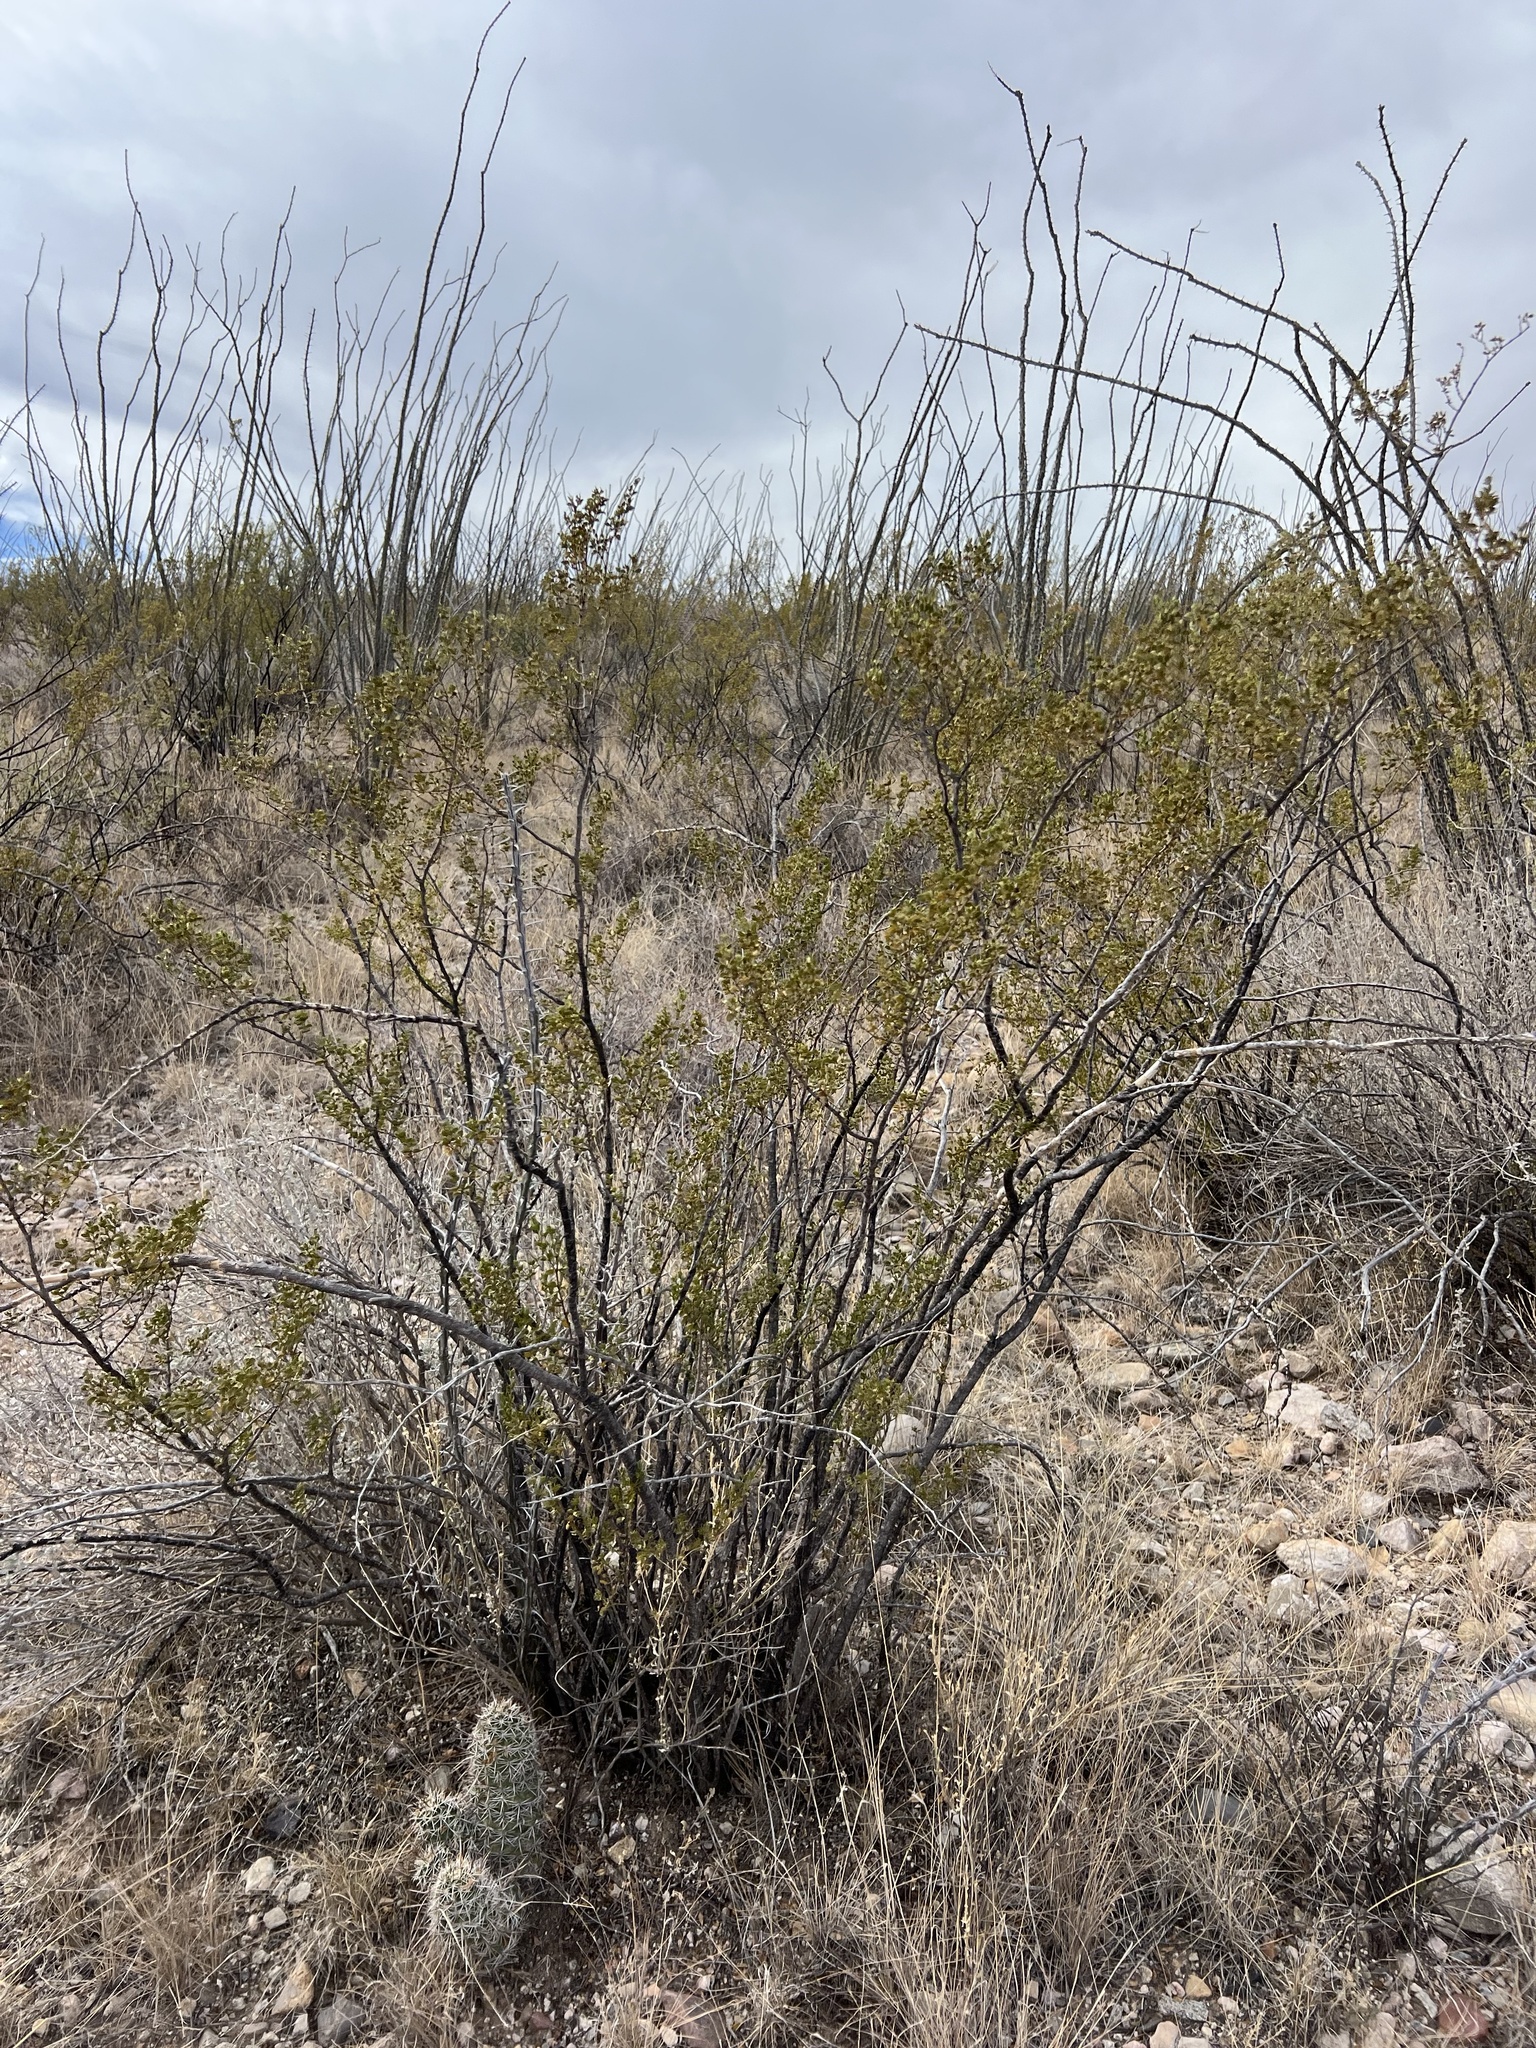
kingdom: Plantae
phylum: Tracheophyta
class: Magnoliopsida
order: Zygophyllales
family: Zygophyllaceae
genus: Larrea
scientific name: Larrea tridentata
